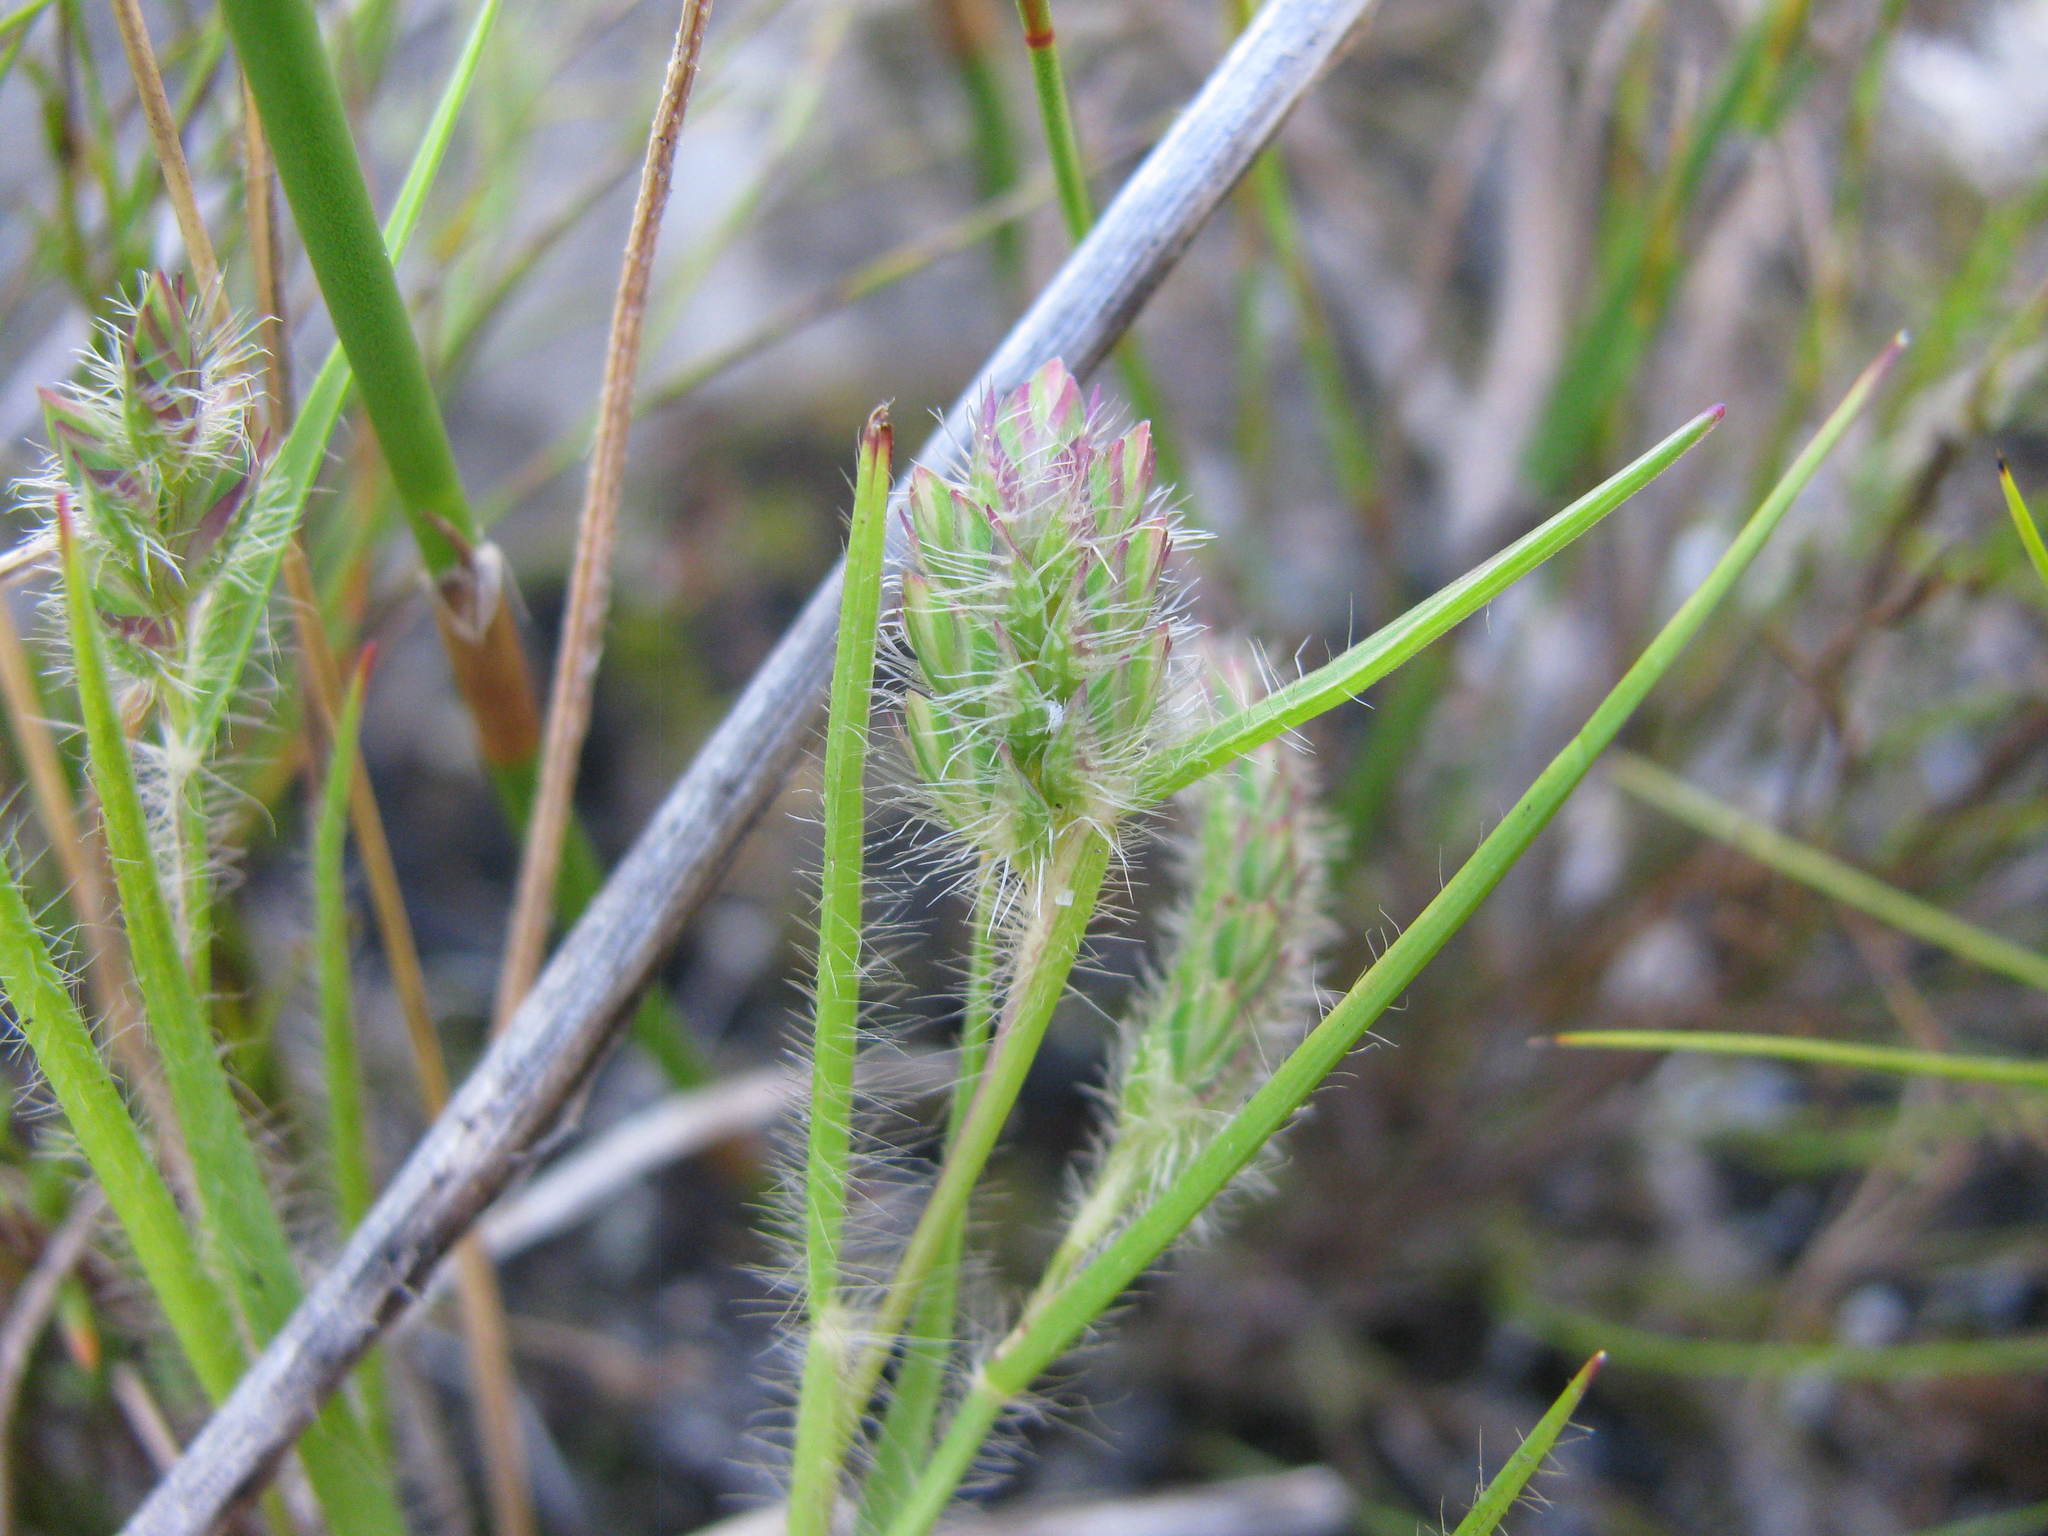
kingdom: Plantae
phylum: Tracheophyta
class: Liliopsida
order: Poales
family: Poaceae
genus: Tribolium
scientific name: Tribolium brachystachyum
